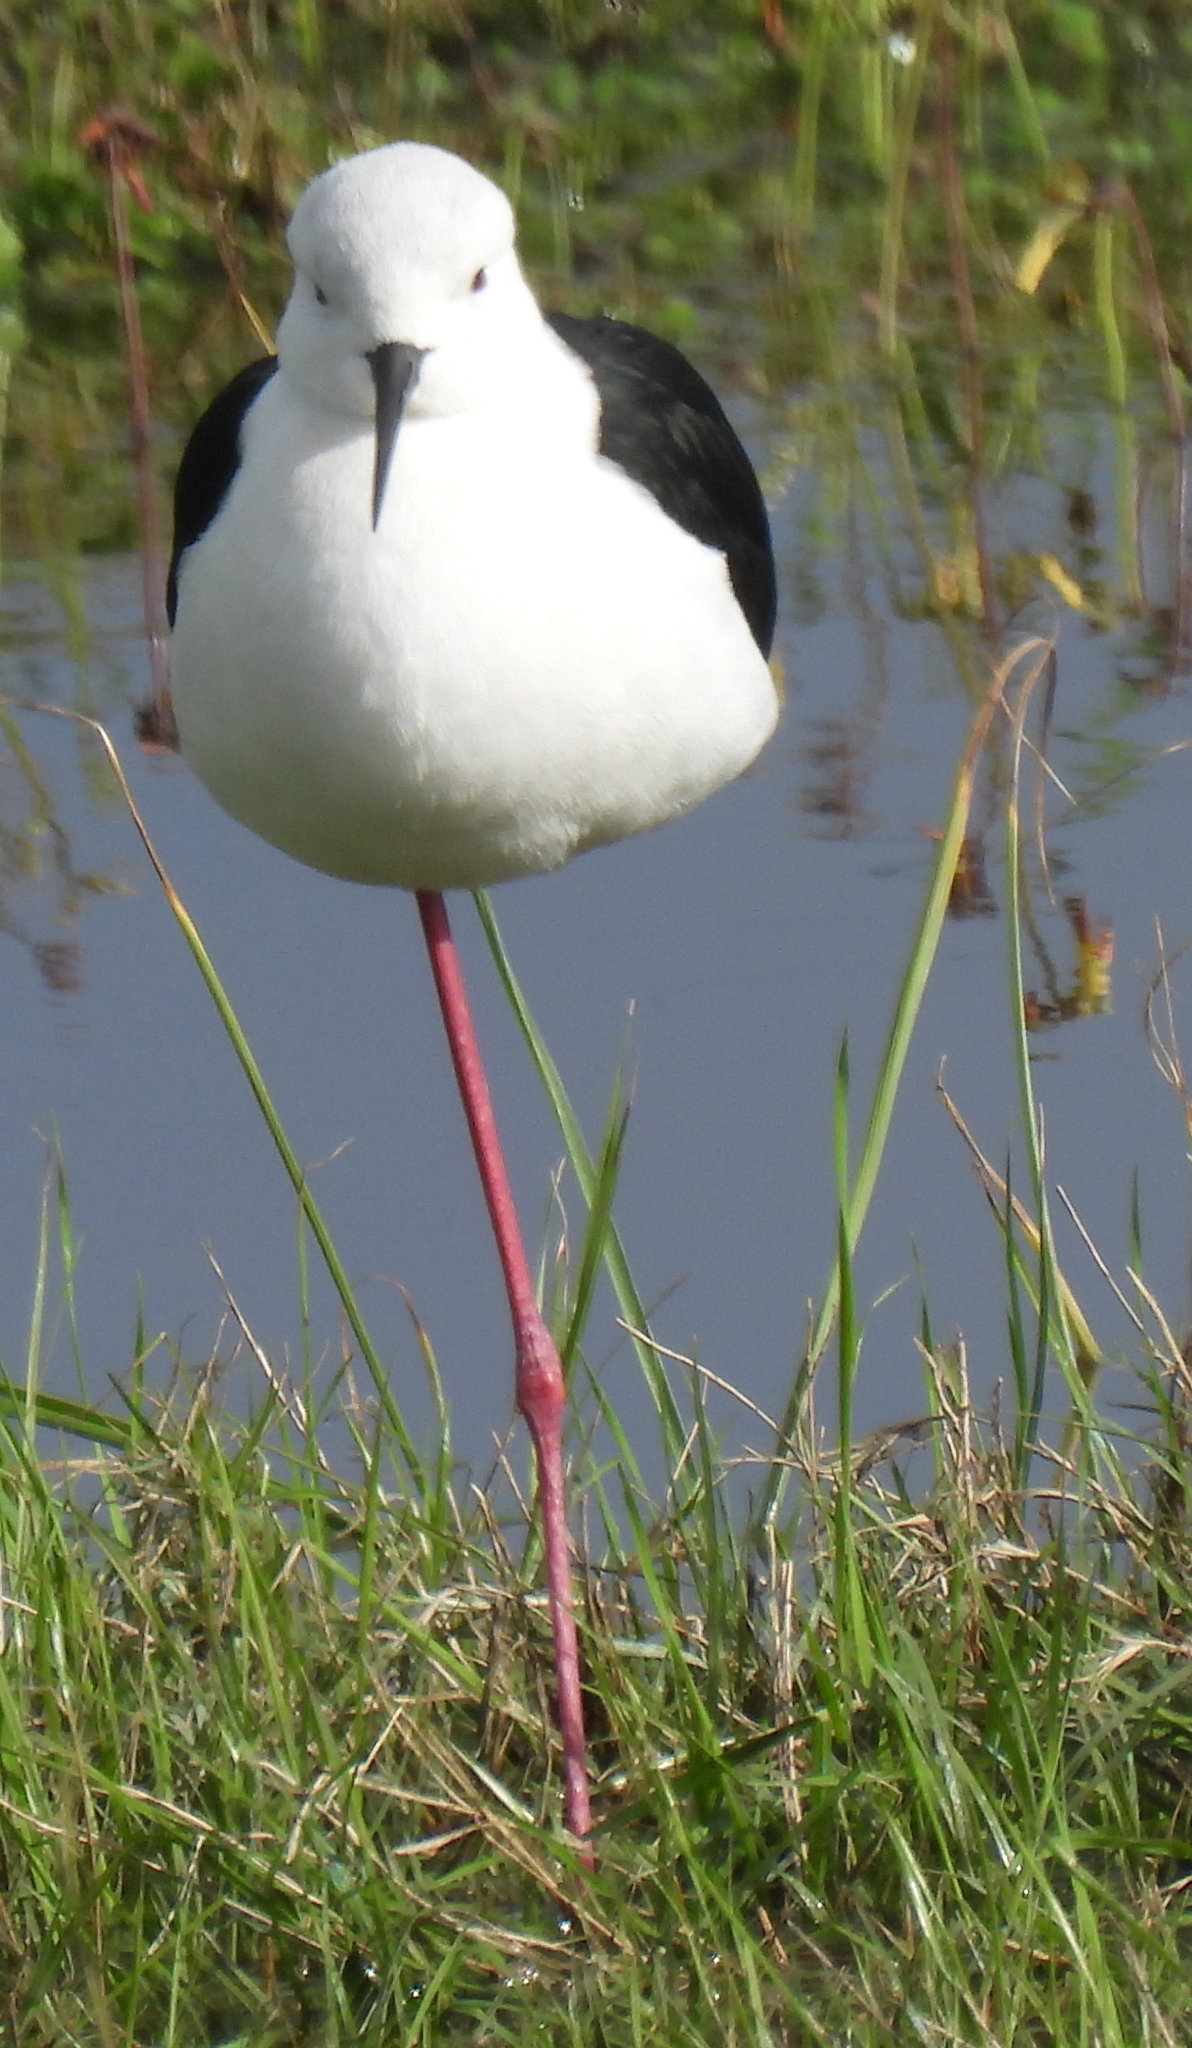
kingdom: Animalia
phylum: Chordata
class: Aves
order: Charadriiformes
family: Recurvirostridae
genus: Himantopus
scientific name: Himantopus himantopus
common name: Black-winged stilt
